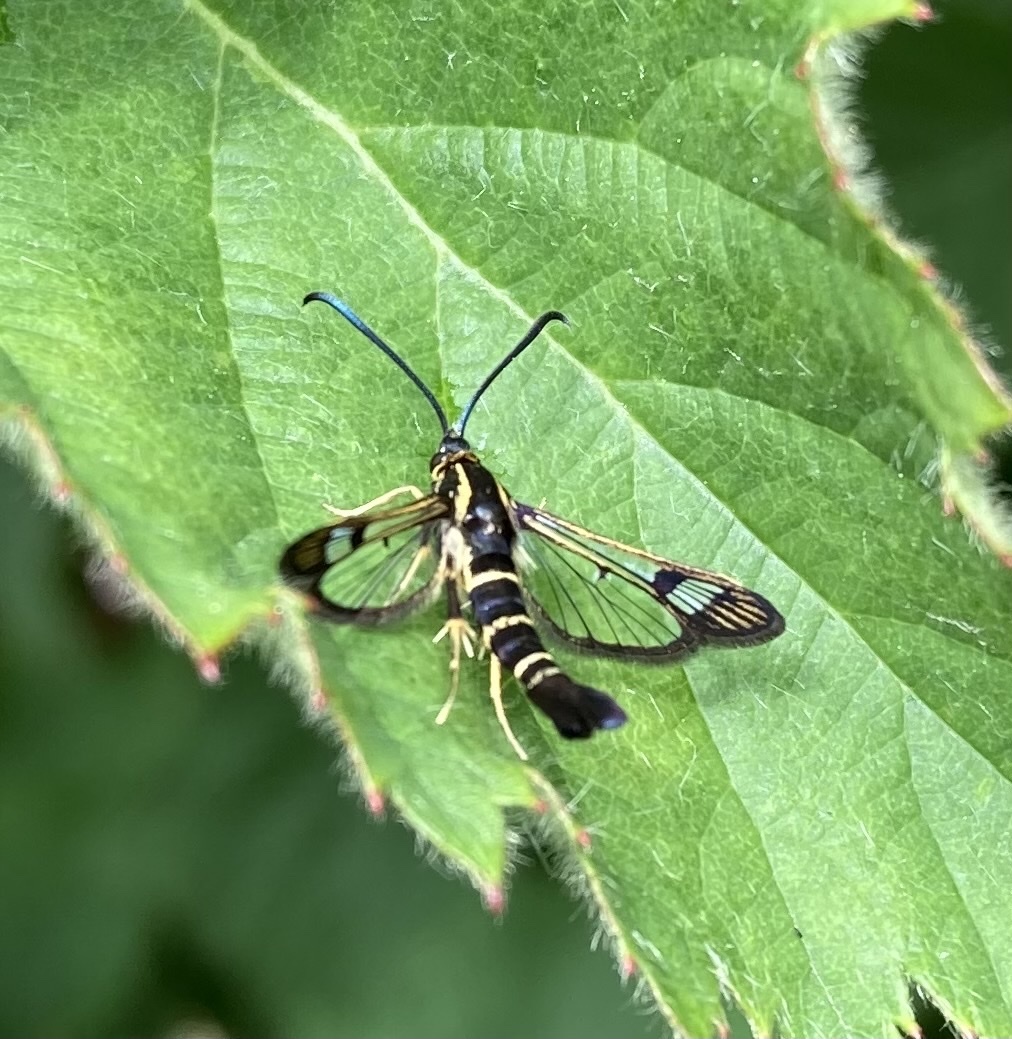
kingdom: Animalia
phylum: Arthropoda
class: Insecta
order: Lepidoptera
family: Sesiidae
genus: Synanthedon
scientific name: Synanthedon tipuliformis
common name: Currant clearwing
